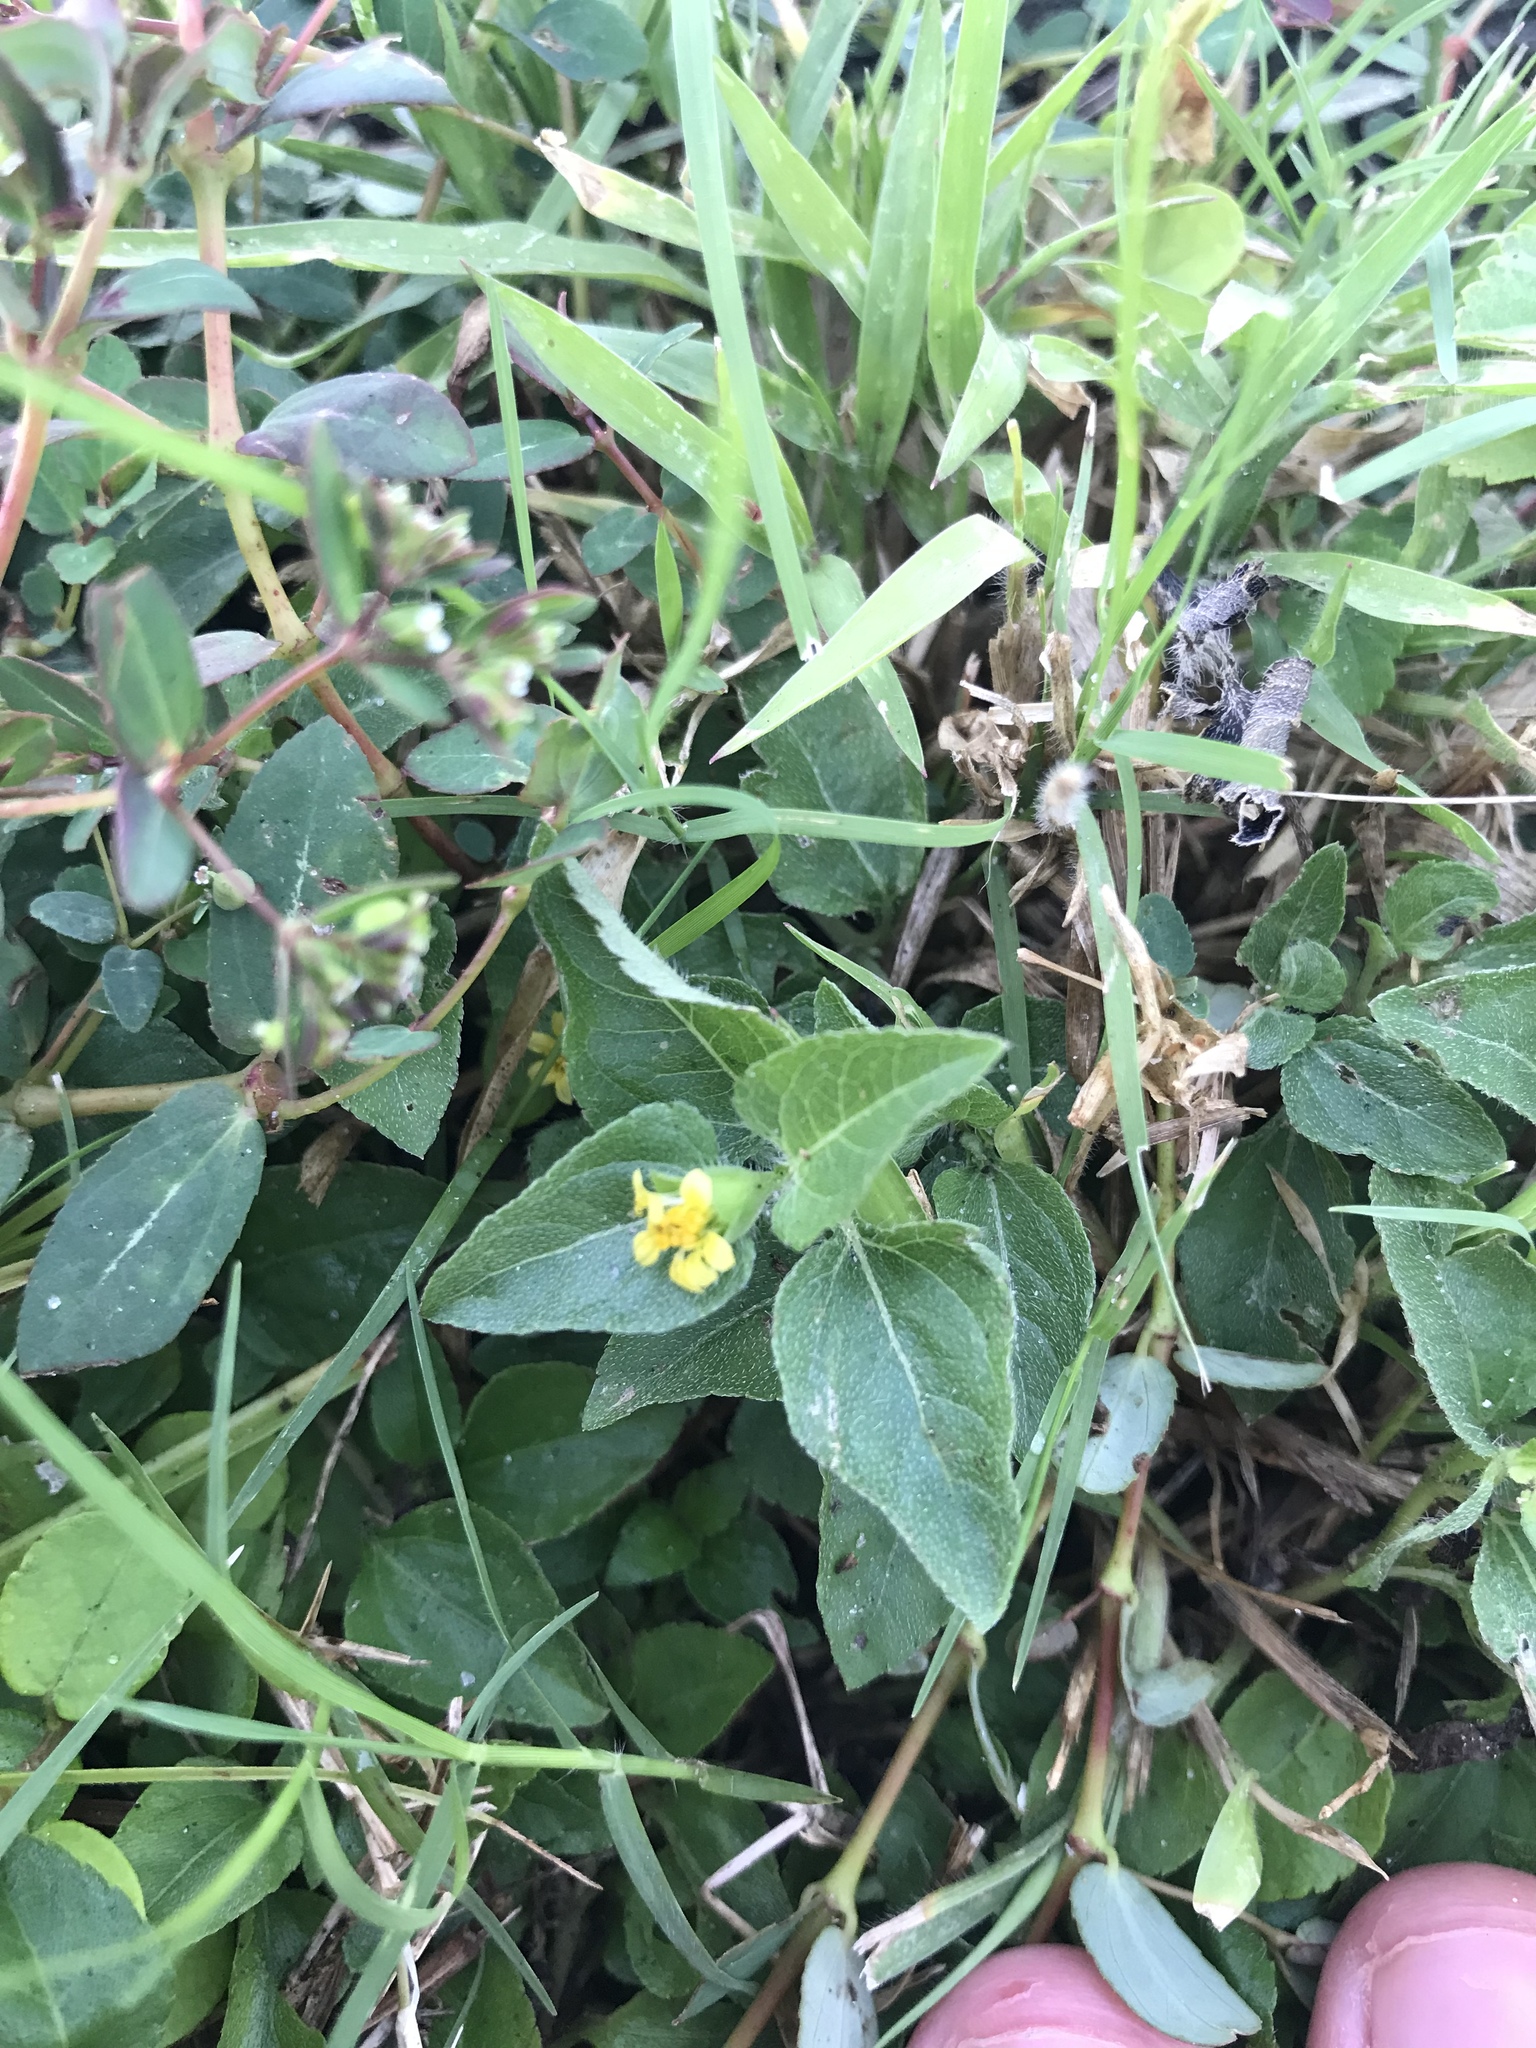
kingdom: Plantae
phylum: Tracheophyta
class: Magnoliopsida
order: Asterales
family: Asteraceae
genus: Calyptocarpus
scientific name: Calyptocarpus vialis
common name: Straggler daisy
